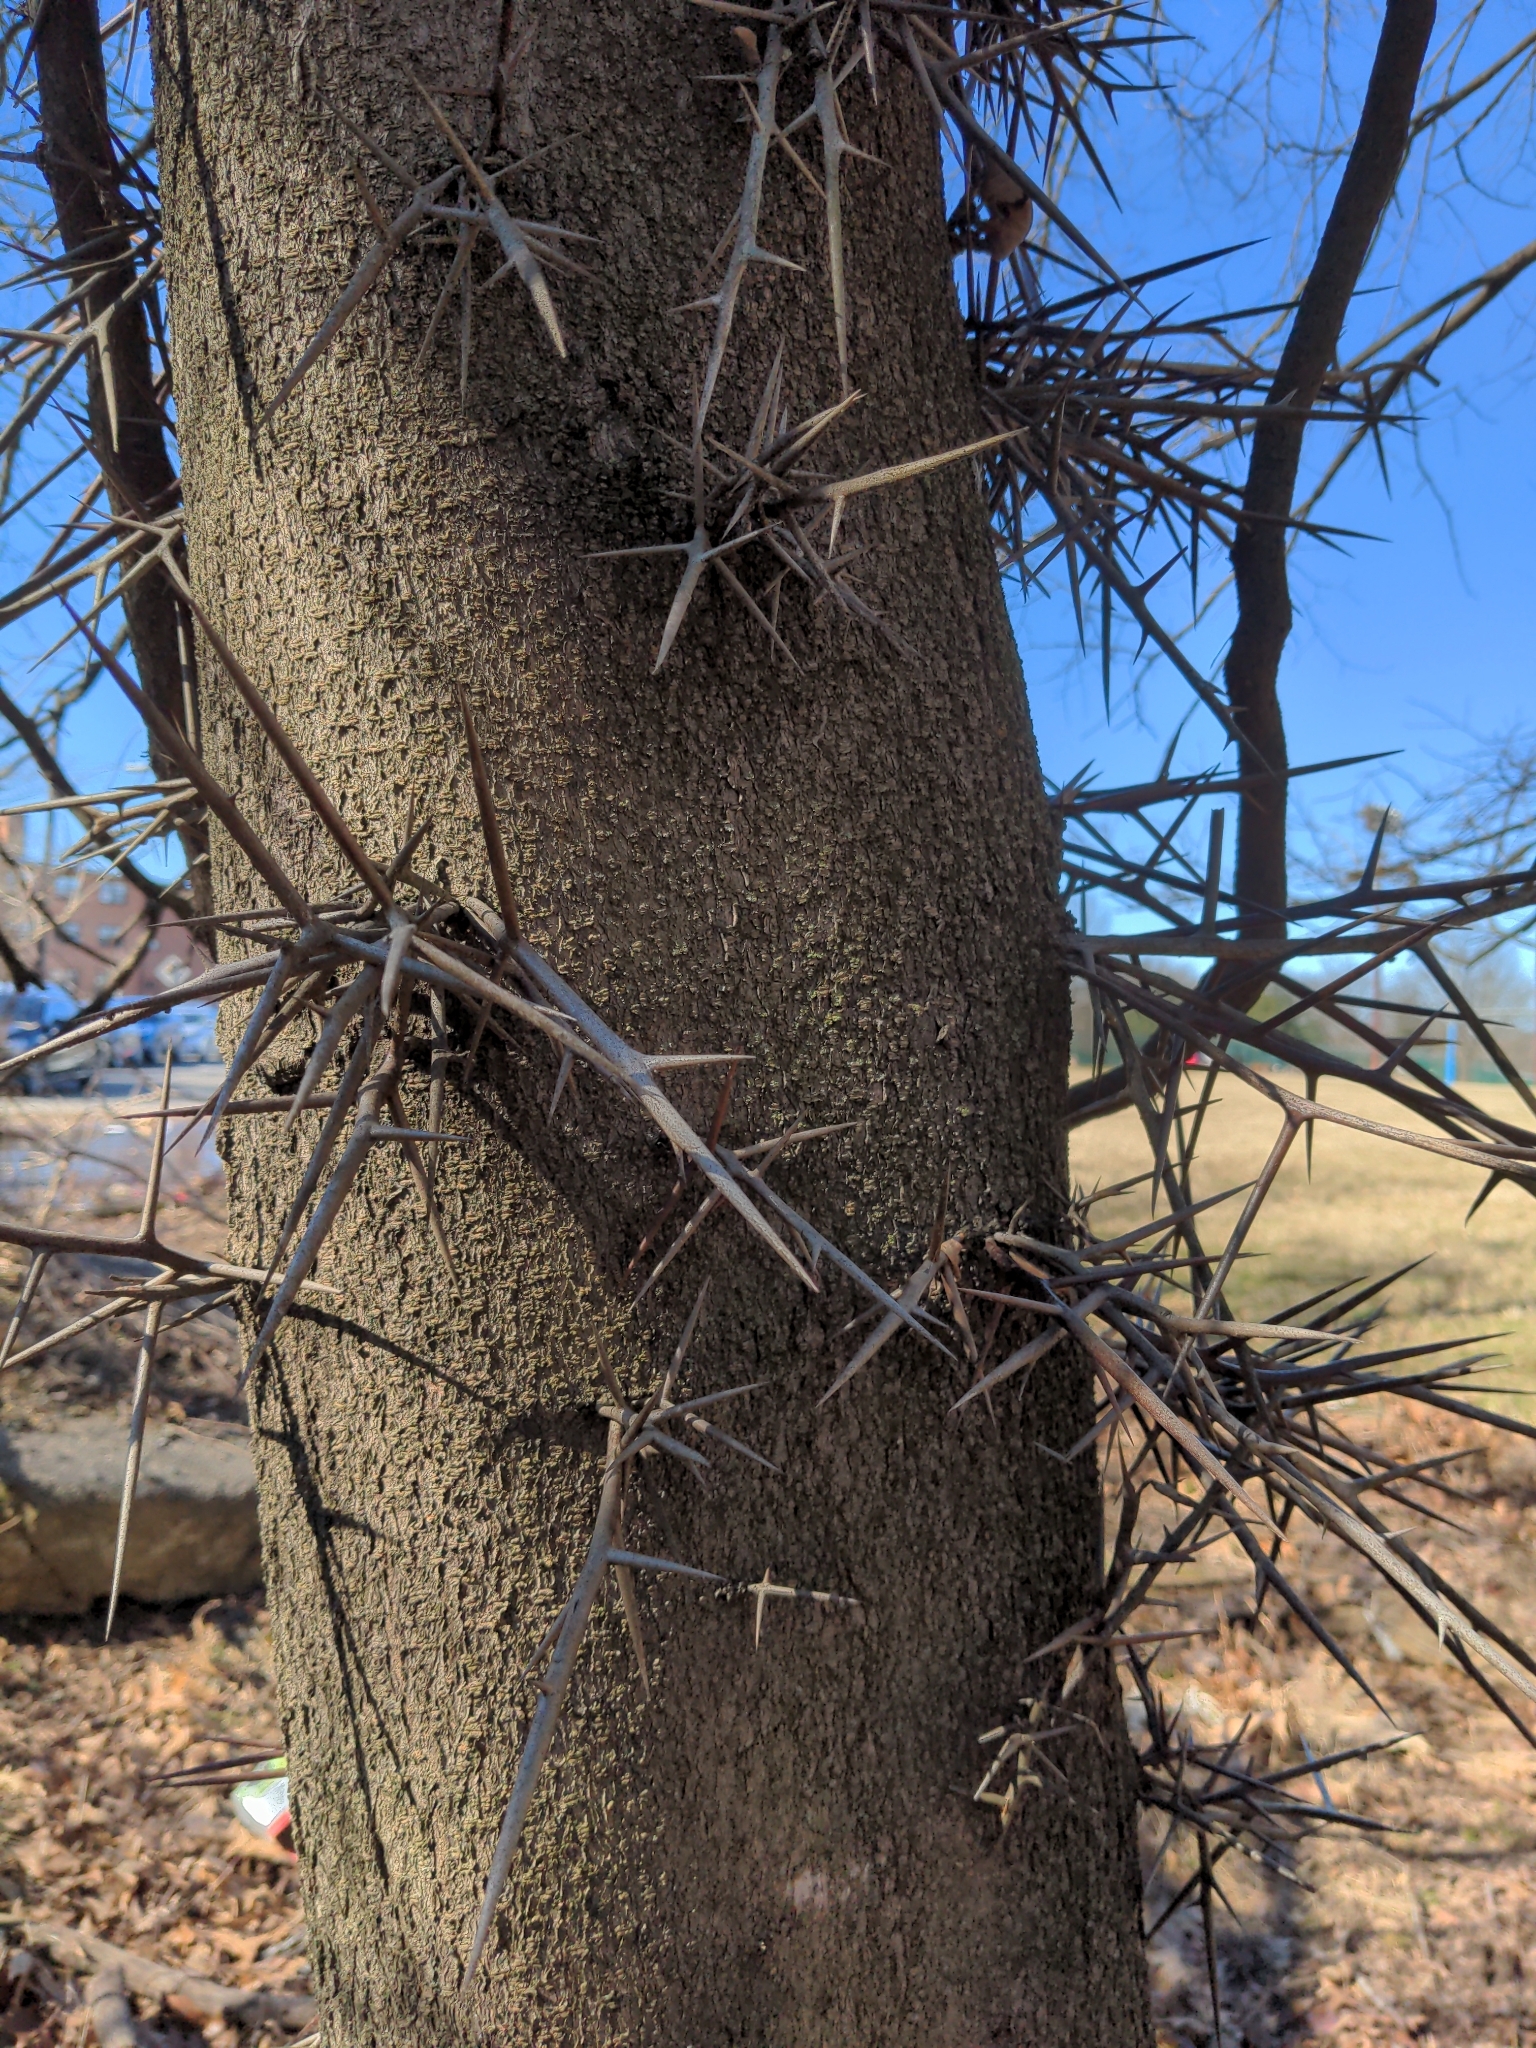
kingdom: Plantae
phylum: Tracheophyta
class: Magnoliopsida
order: Fabales
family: Fabaceae
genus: Gleditsia
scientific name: Gleditsia triacanthos
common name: Common honeylocust
